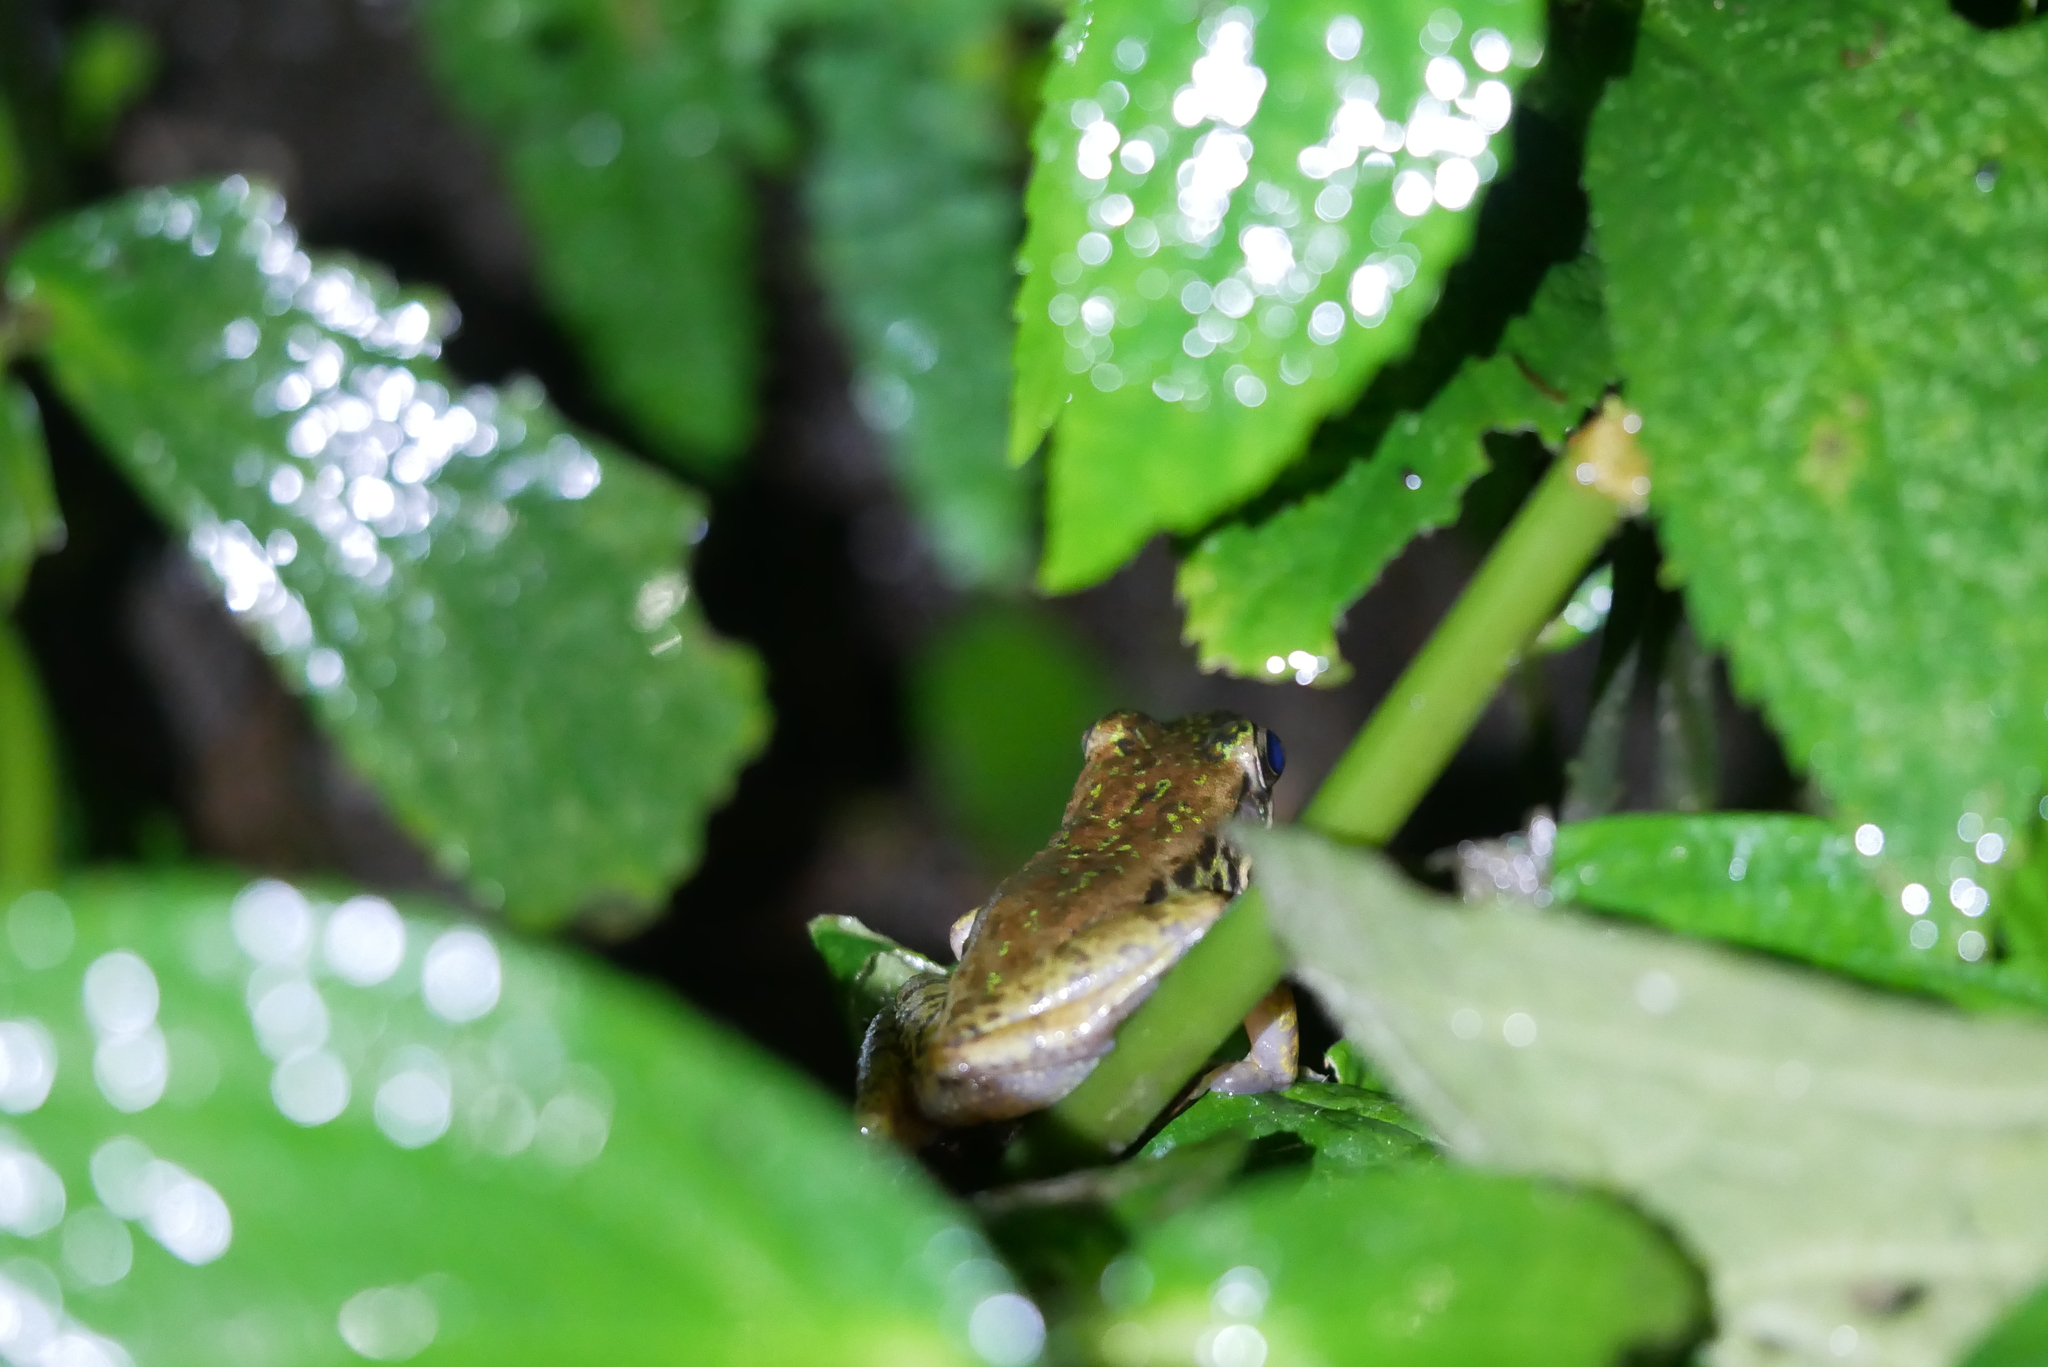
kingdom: Animalia
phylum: Chordata
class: Amphibia
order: Anura
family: Ranidae
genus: Odorrana
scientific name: Odorrana swinhoana
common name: Bangkimtsing frog
